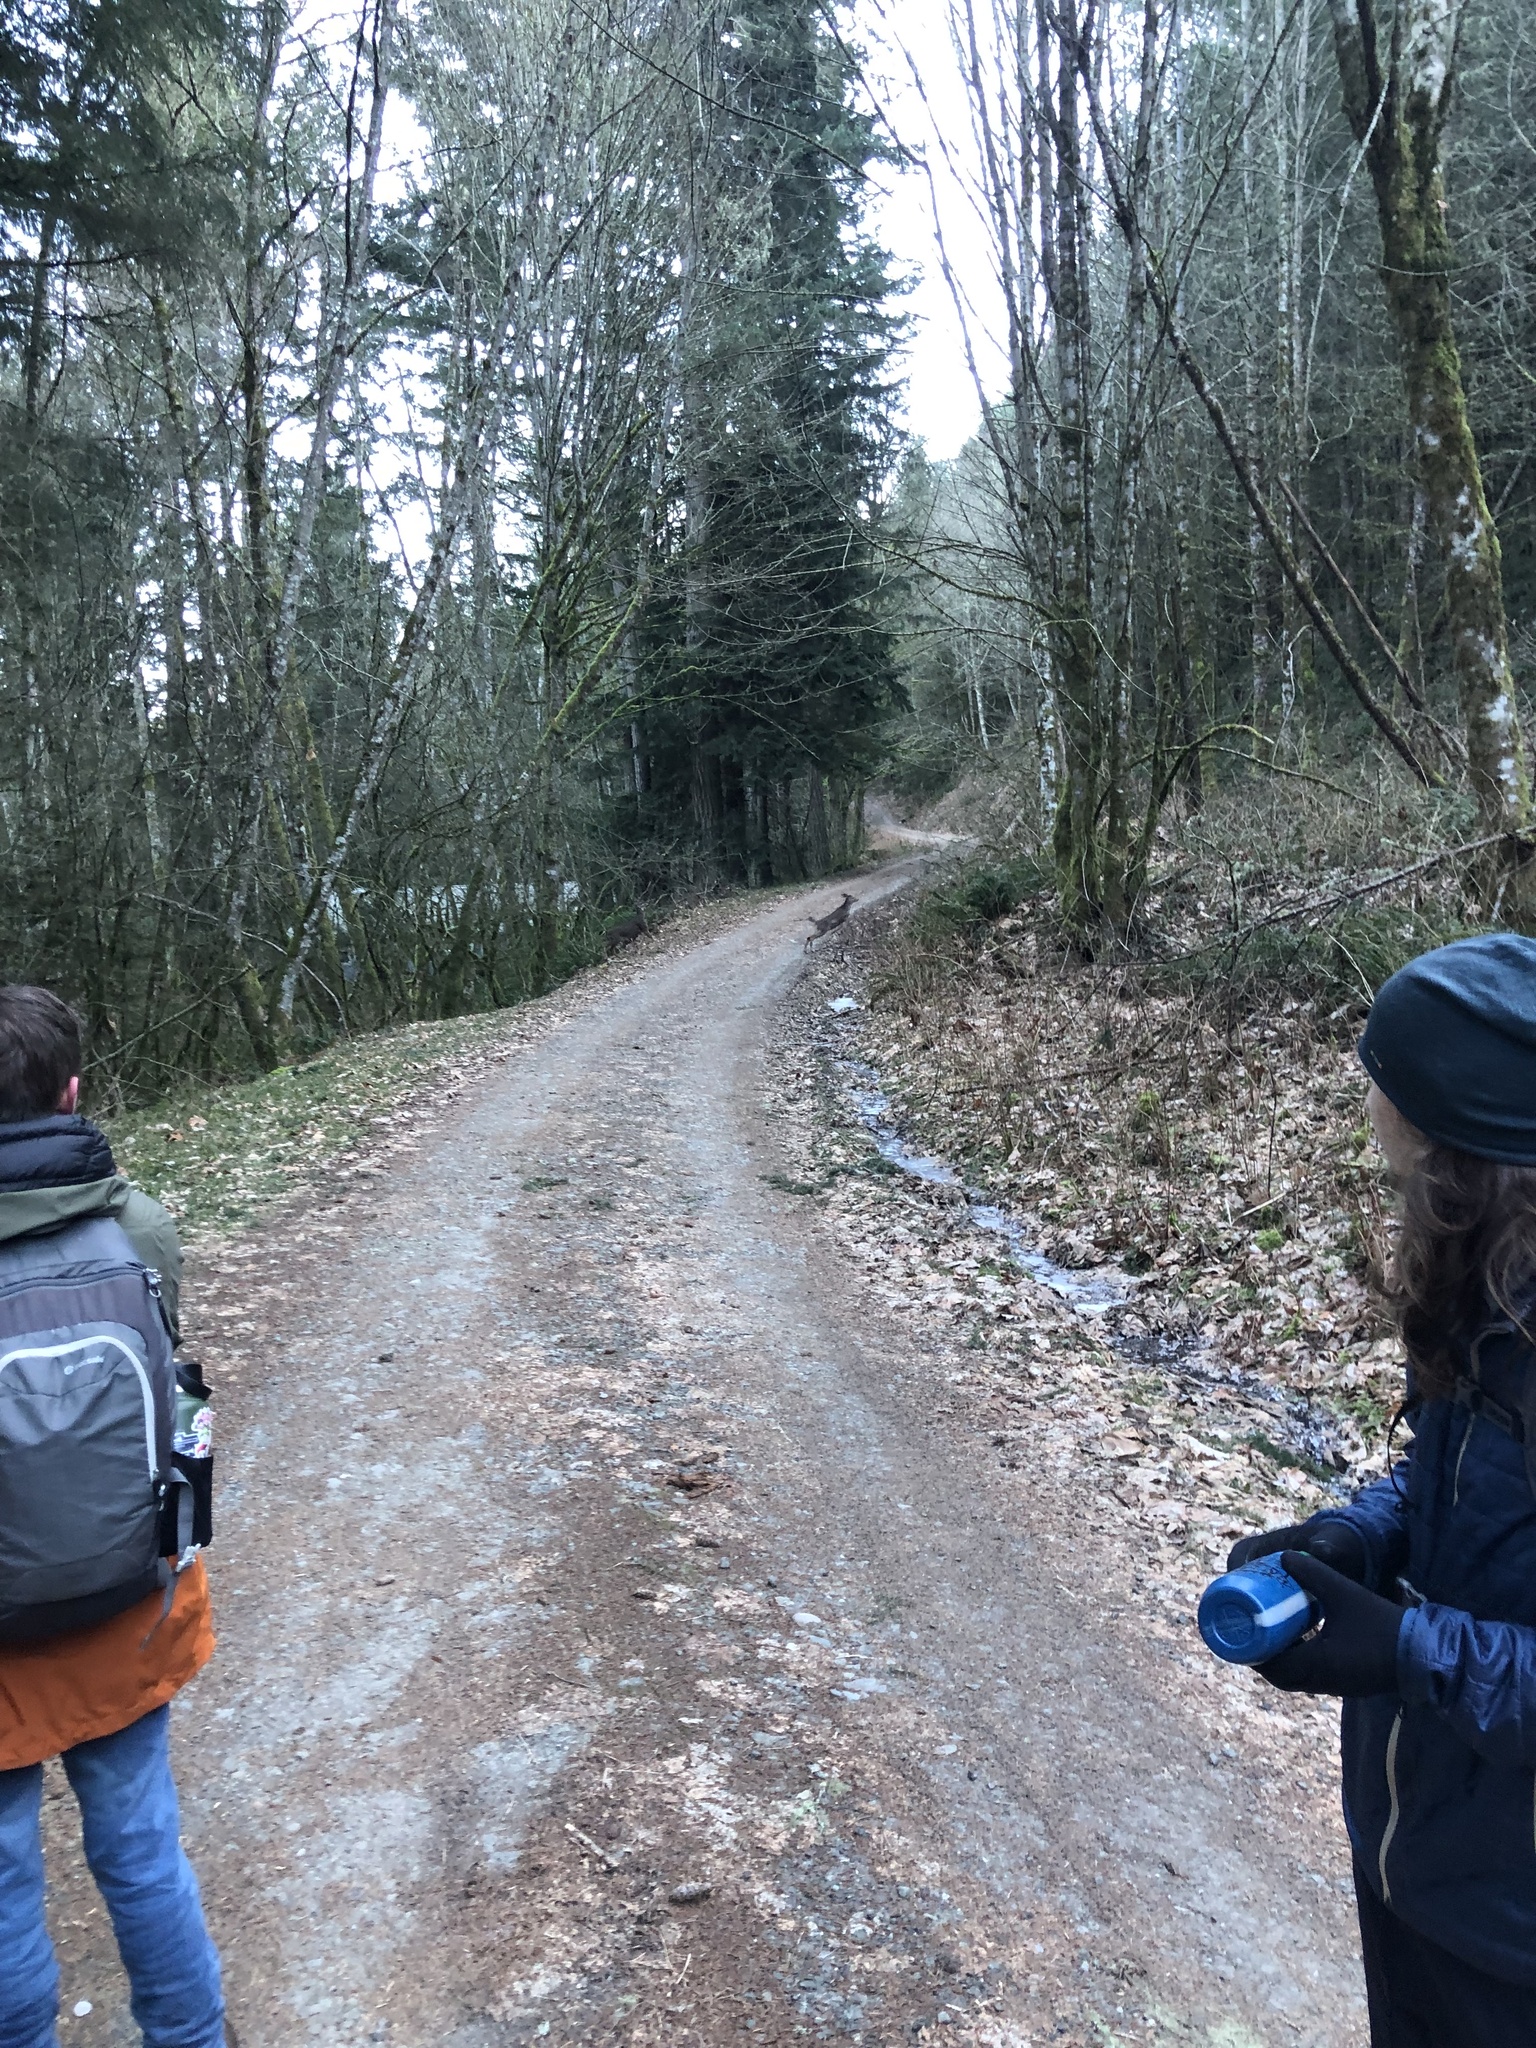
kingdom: Animalia
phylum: Chordata
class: Mammalia
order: Artiodactyla
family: Cervidae
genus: Odocoileus
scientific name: Odocoileus hemionus
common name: Mule deer
